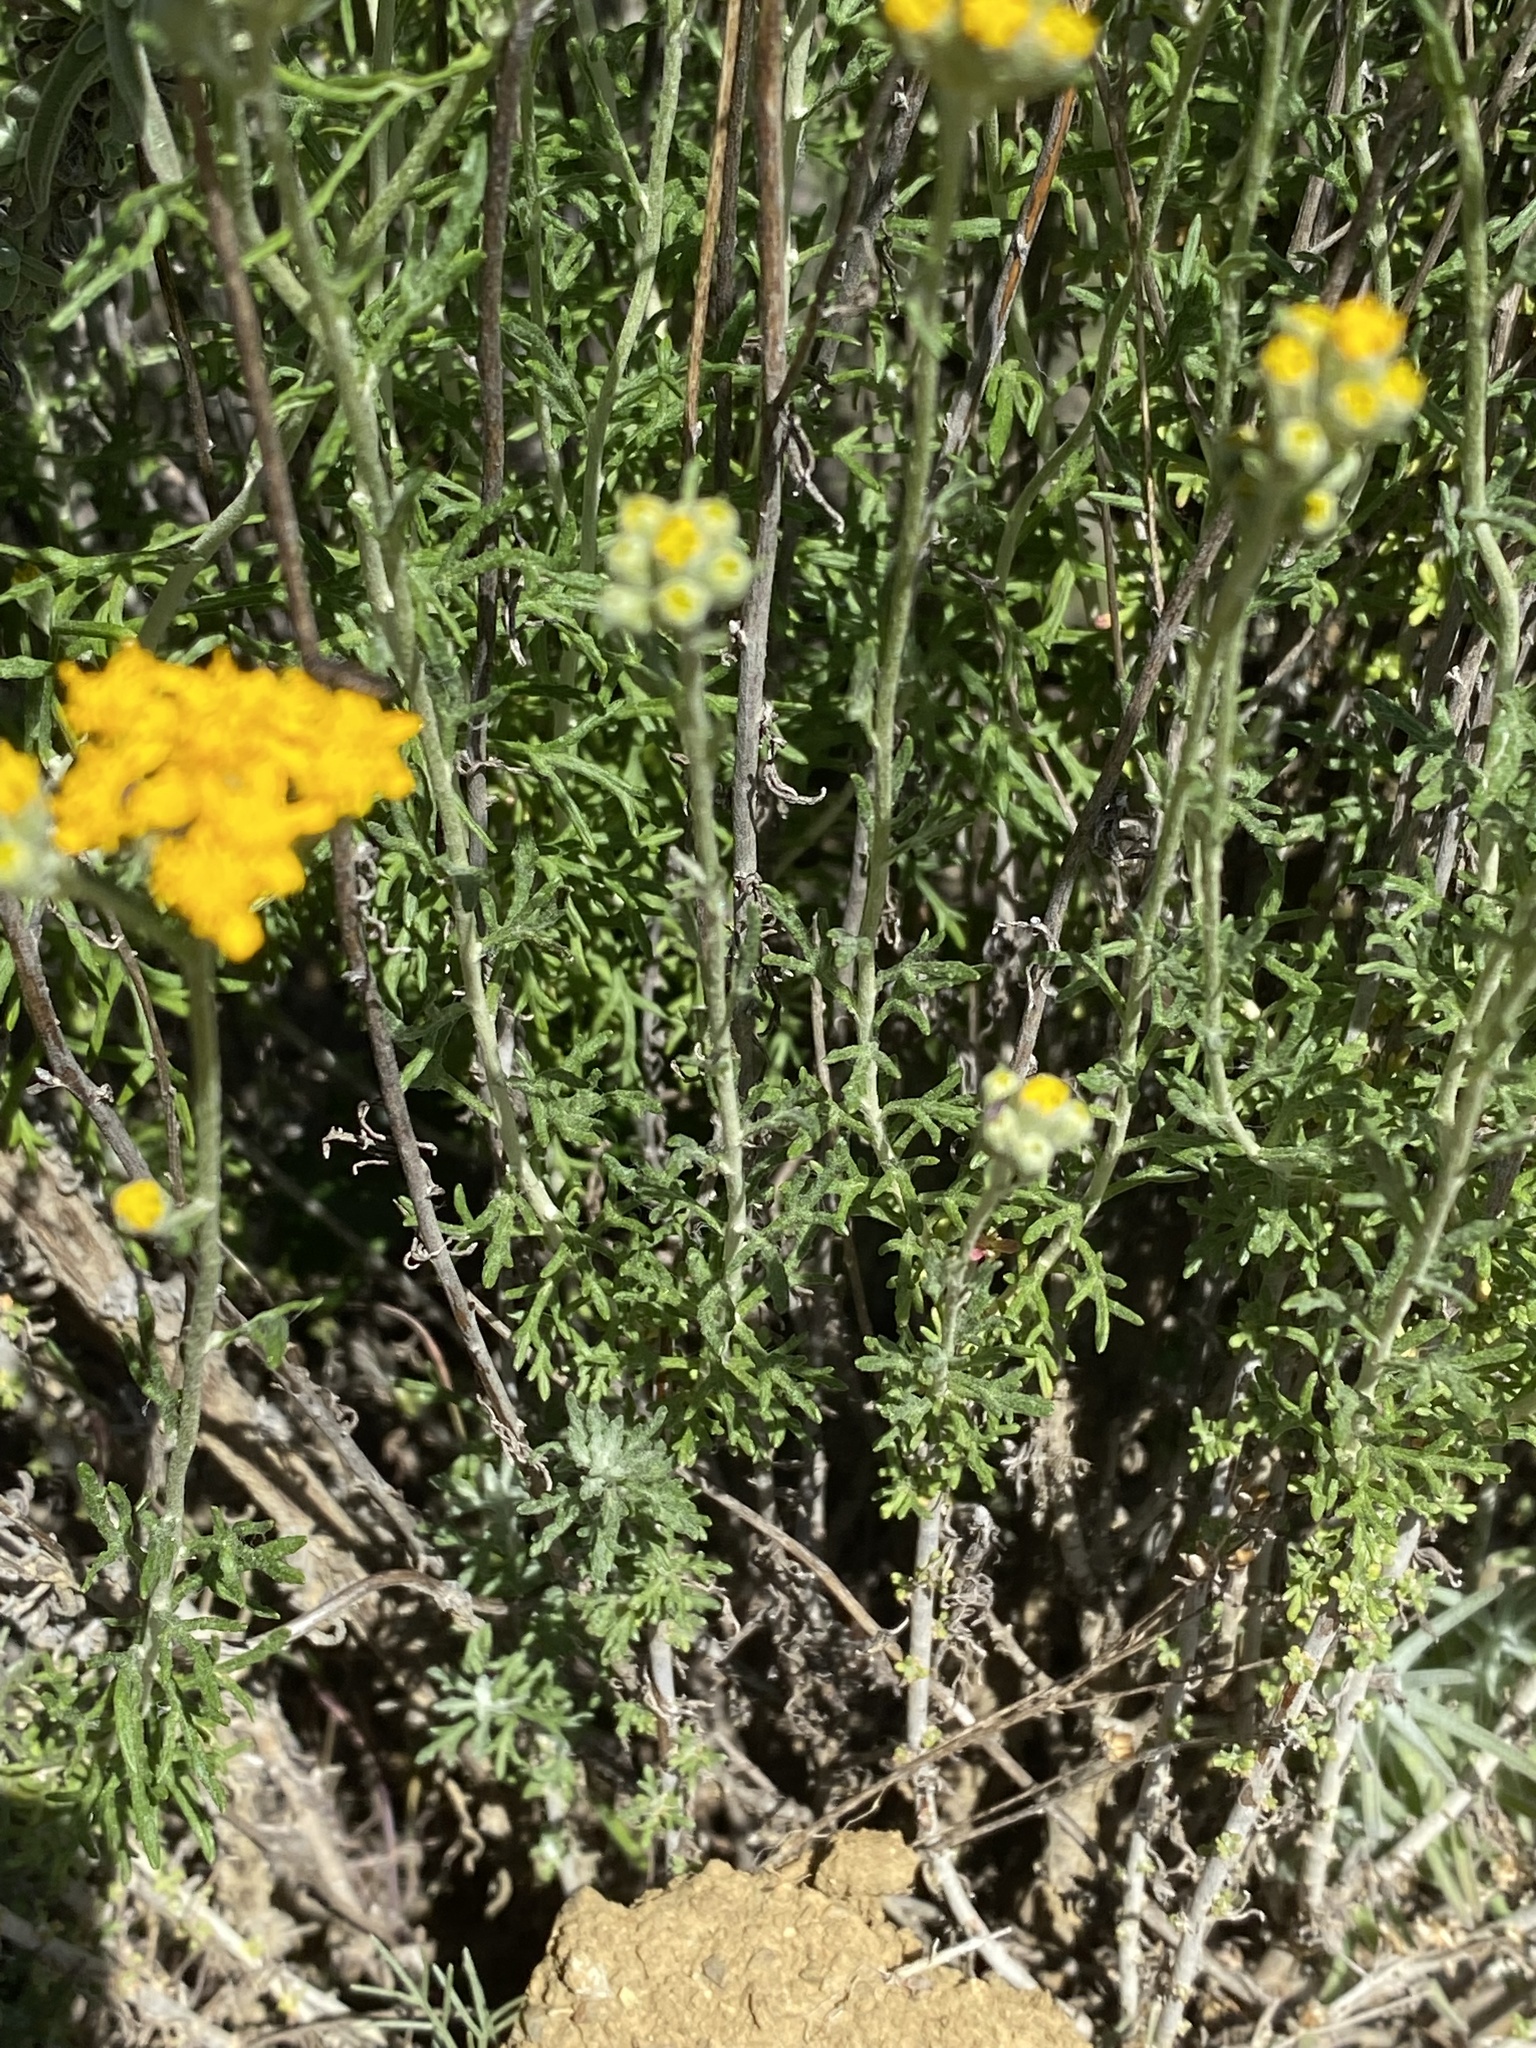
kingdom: Plantae
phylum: Tracheophyta
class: Magnoliopsida
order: Asterales
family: Asteraceae
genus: Eriophyllum
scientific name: Eriophyllum confertiflorum
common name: Golden-yarrow
